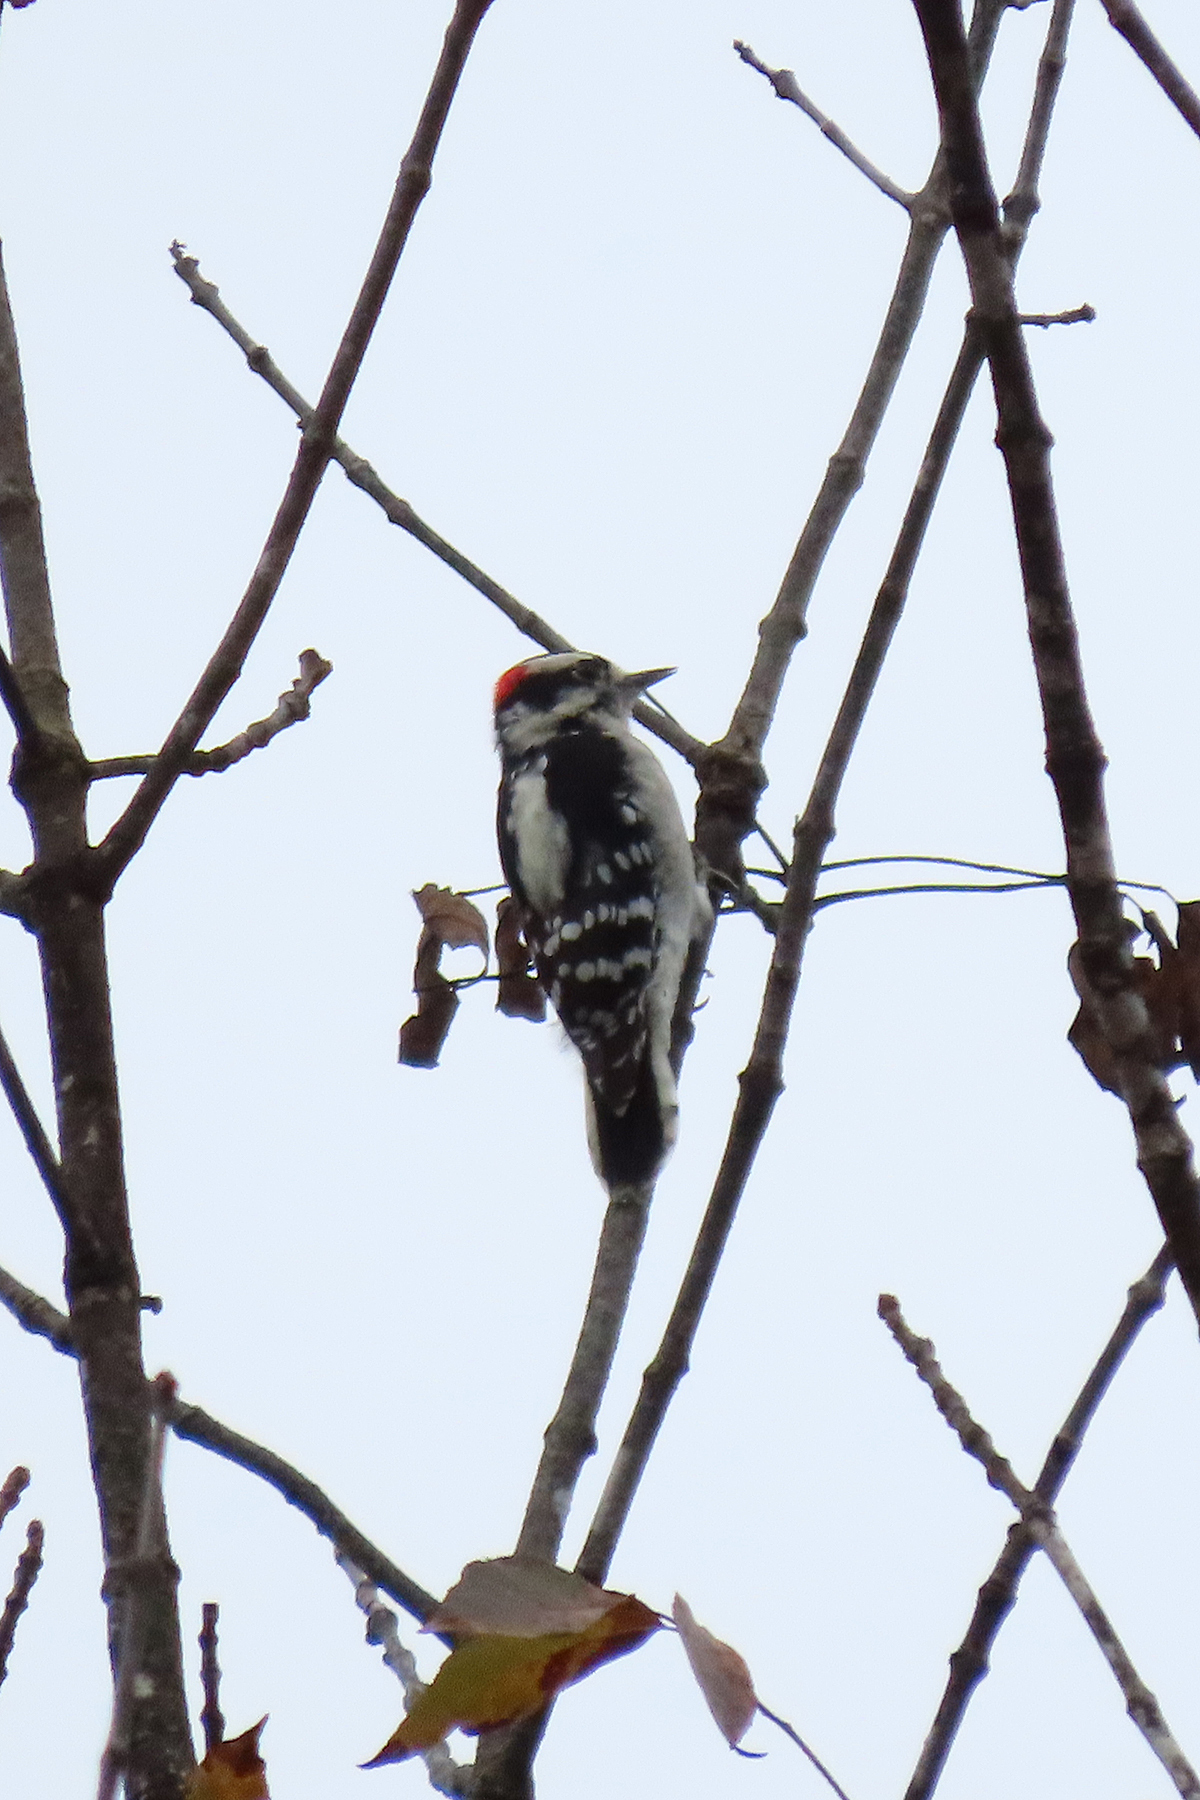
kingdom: Animalia
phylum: Chordata
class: Aves
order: Piciformes
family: Picidae
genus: Dryobates
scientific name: Dryobates pubescens
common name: Downy woodpecker
